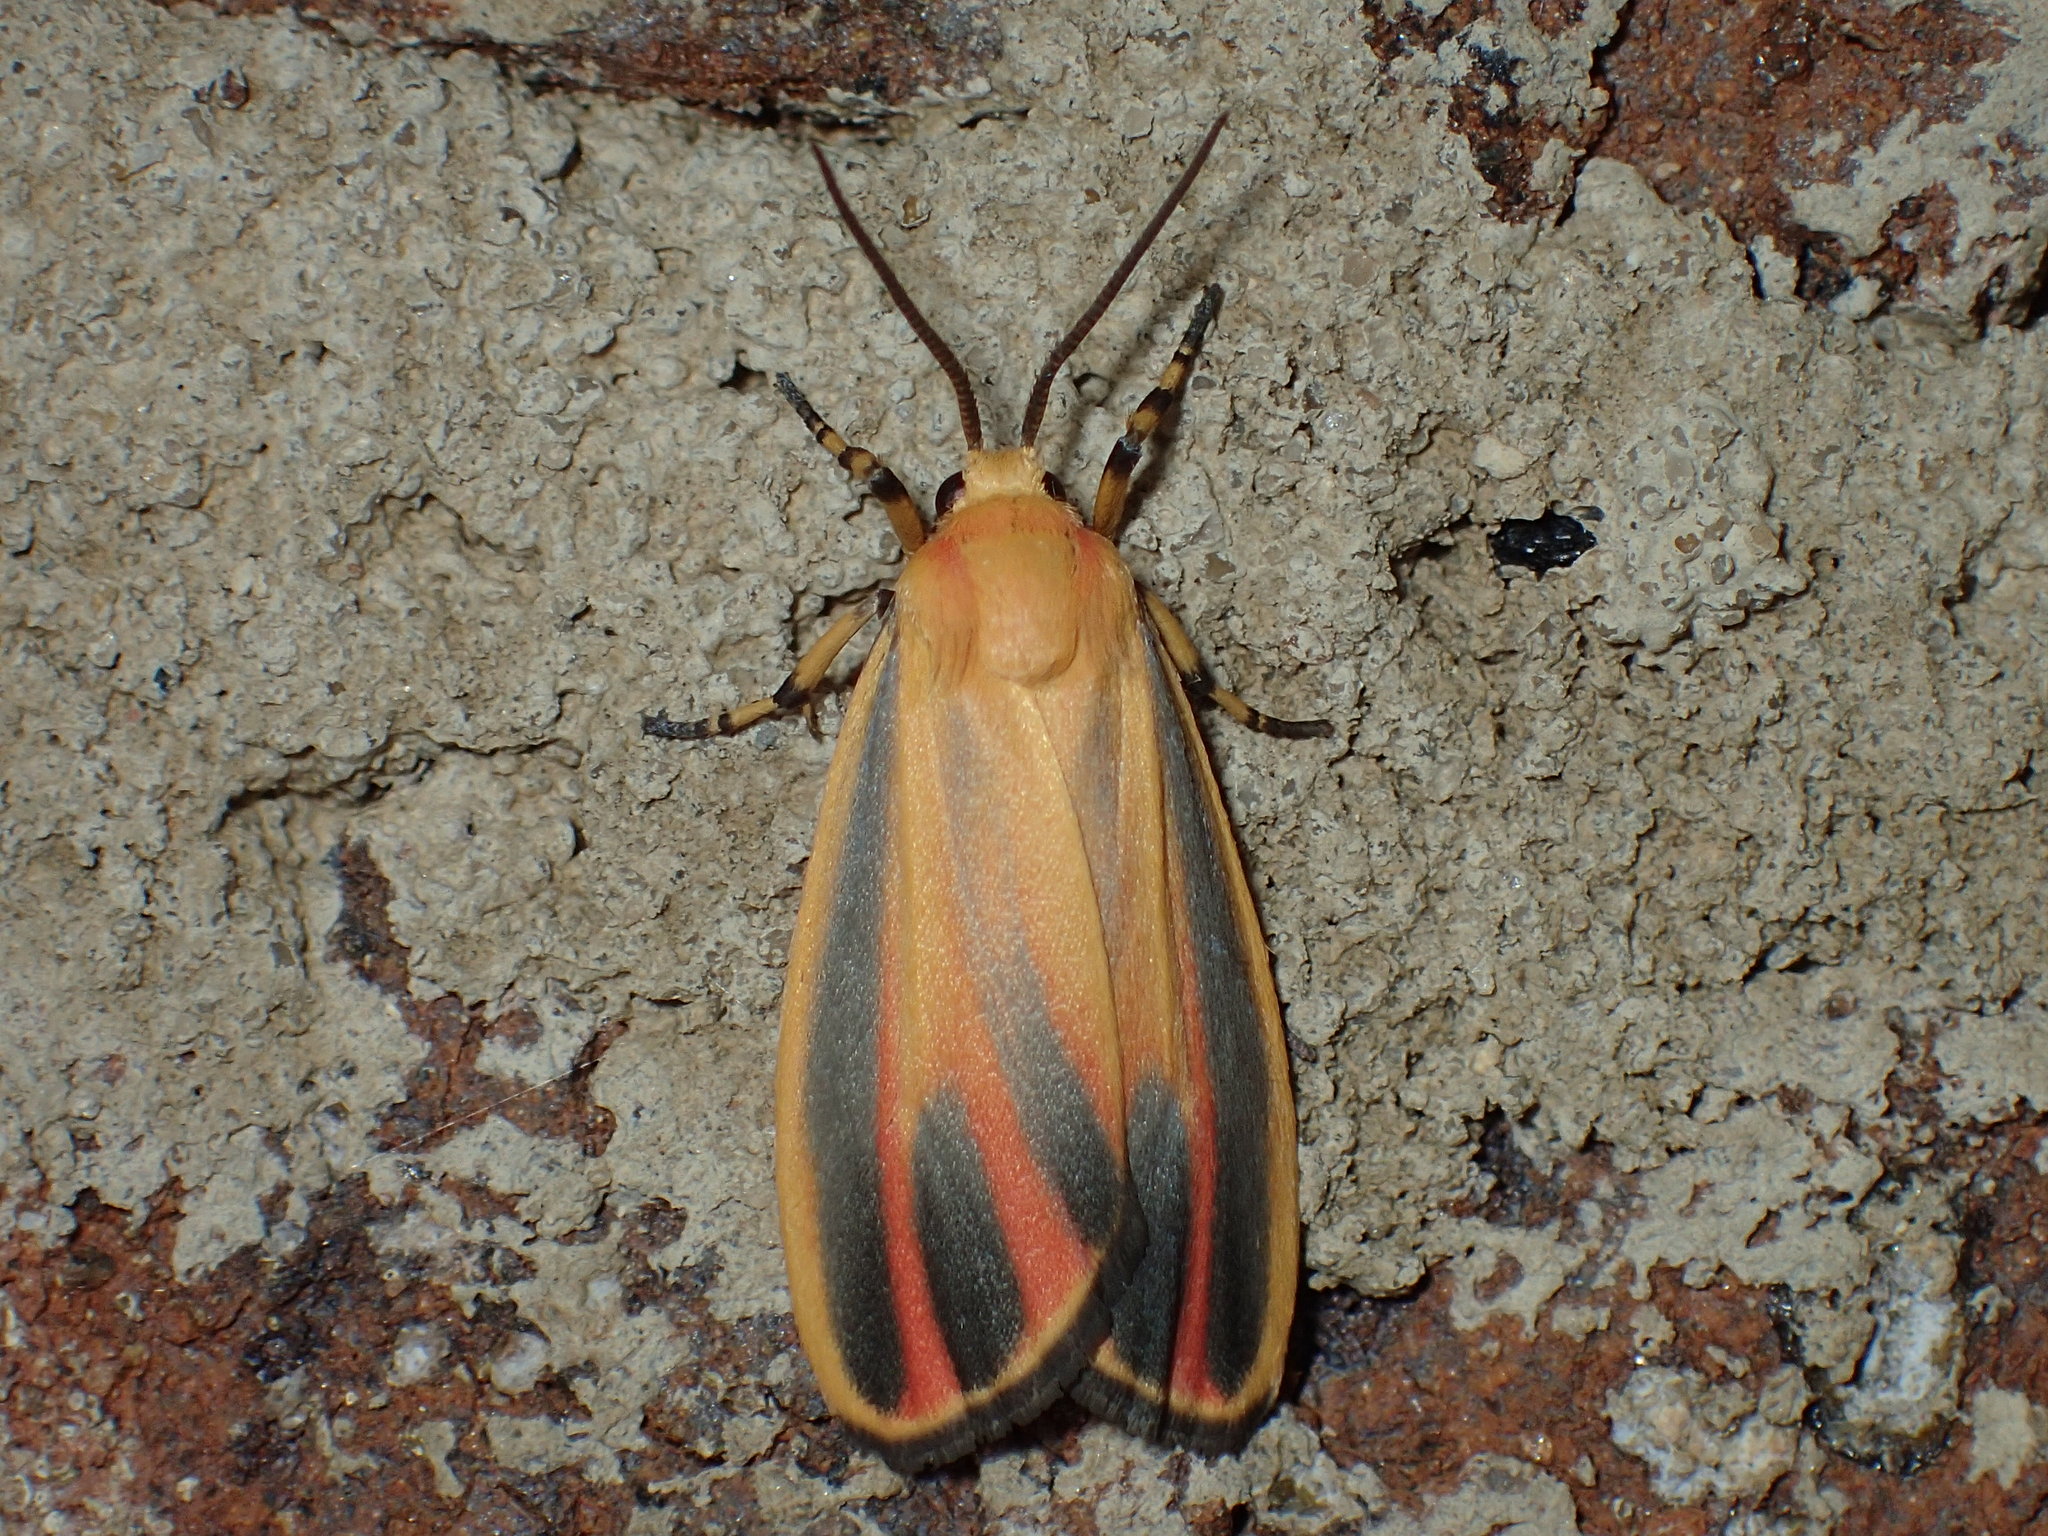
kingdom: Animalia
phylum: Arthropoda
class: Insecta
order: Lepidoptera
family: Erebidae
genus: Hypoprepia
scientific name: Hypoprepia fucosa
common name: Painted lichen moth
